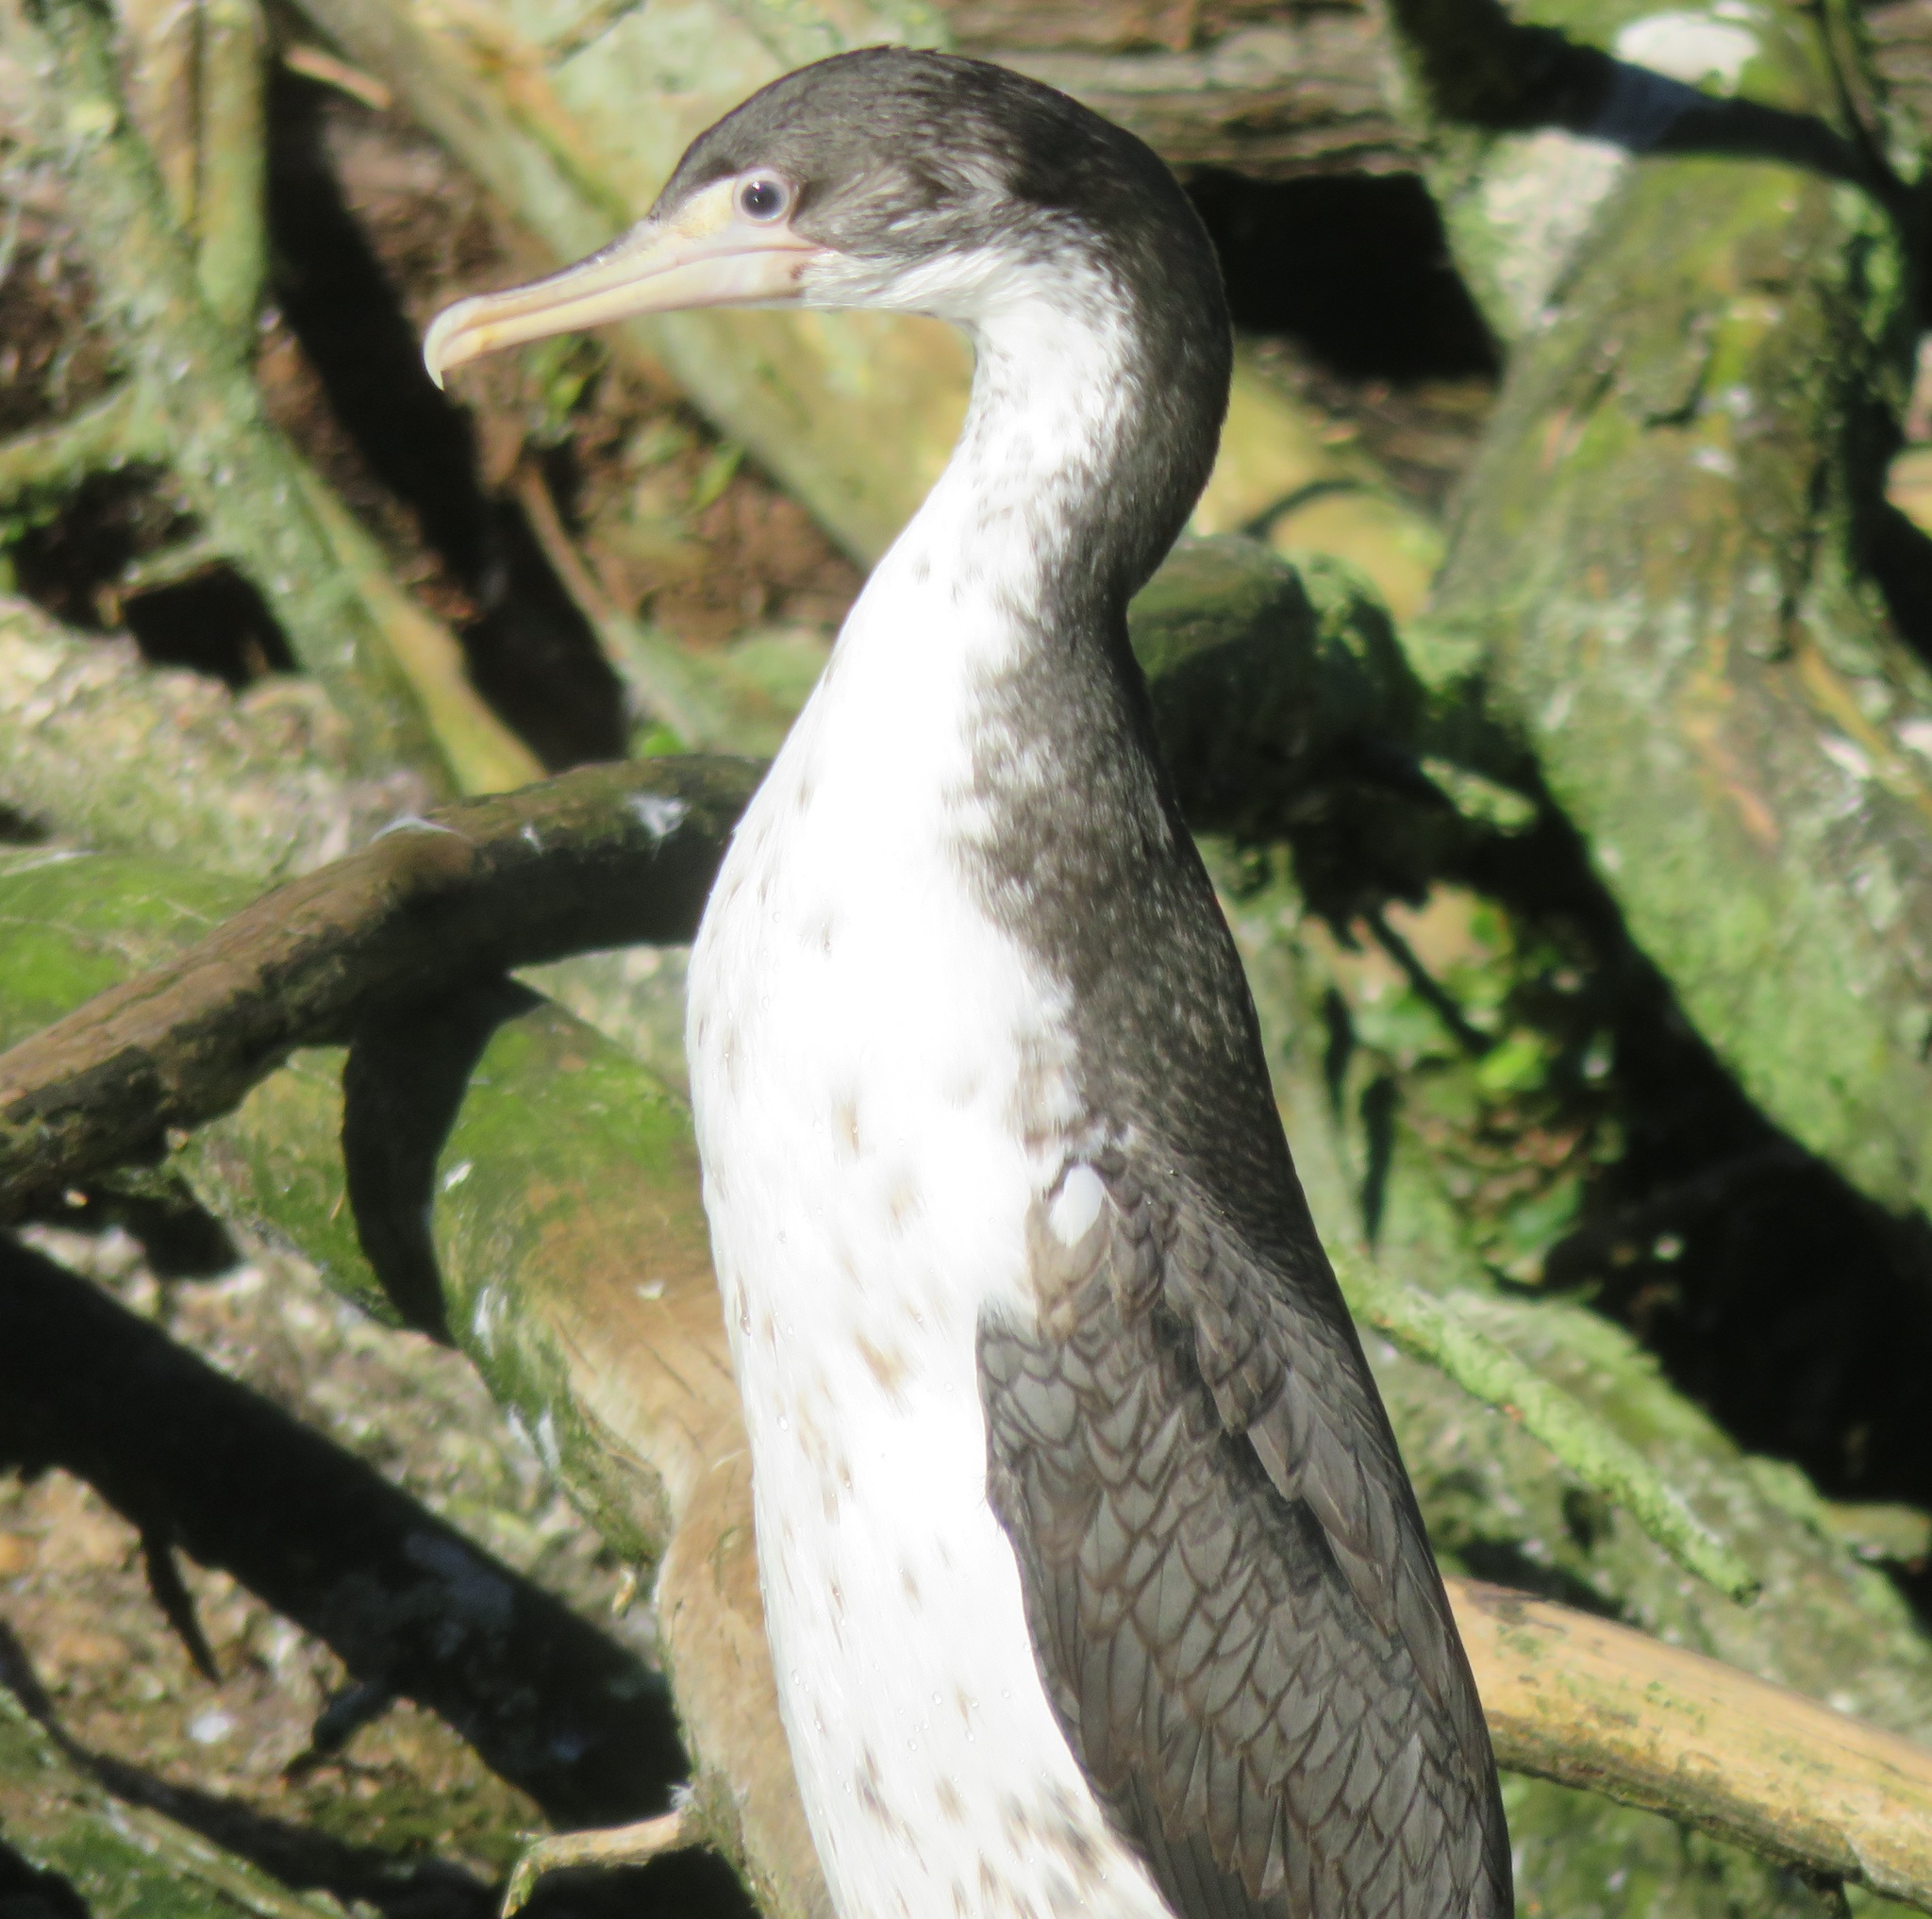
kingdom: Animalia
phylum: Chordata
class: Aves
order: Suliformes
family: Phalacrocoracidae
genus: Phalacrocorax
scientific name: Phalacrocorax varius
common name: Pied cormorant
